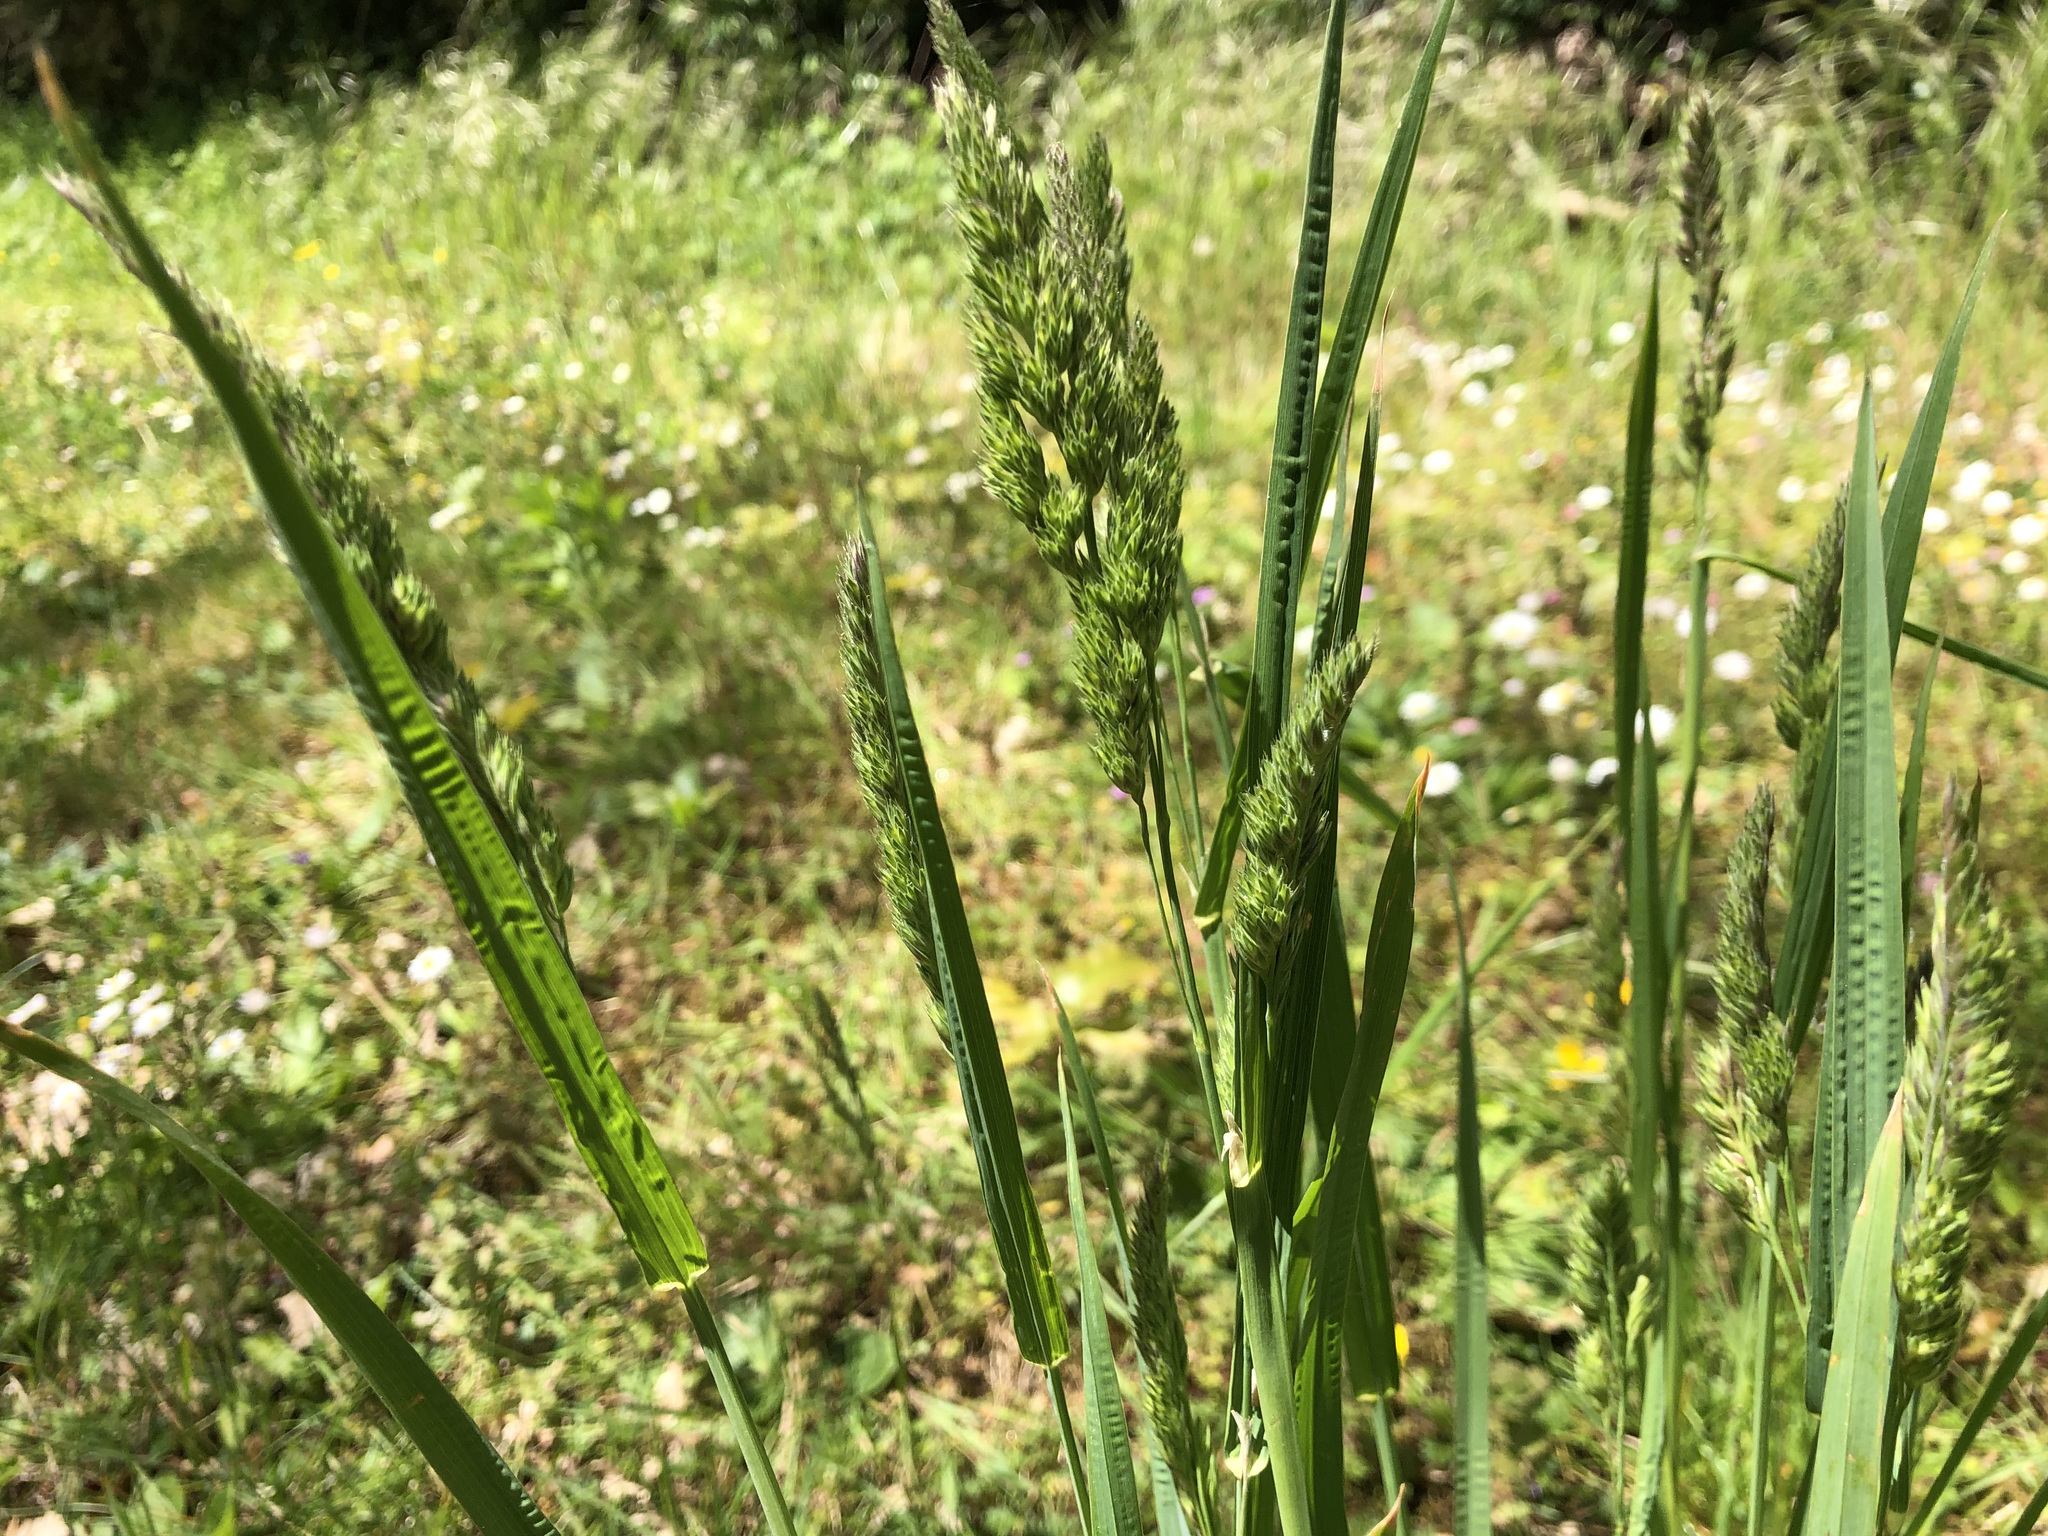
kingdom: Plantae
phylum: Tracheophyta
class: Liliopsida
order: Poales
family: Poaceae
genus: Dactylis
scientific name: Dactylis glomerata
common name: Orchardgrass
